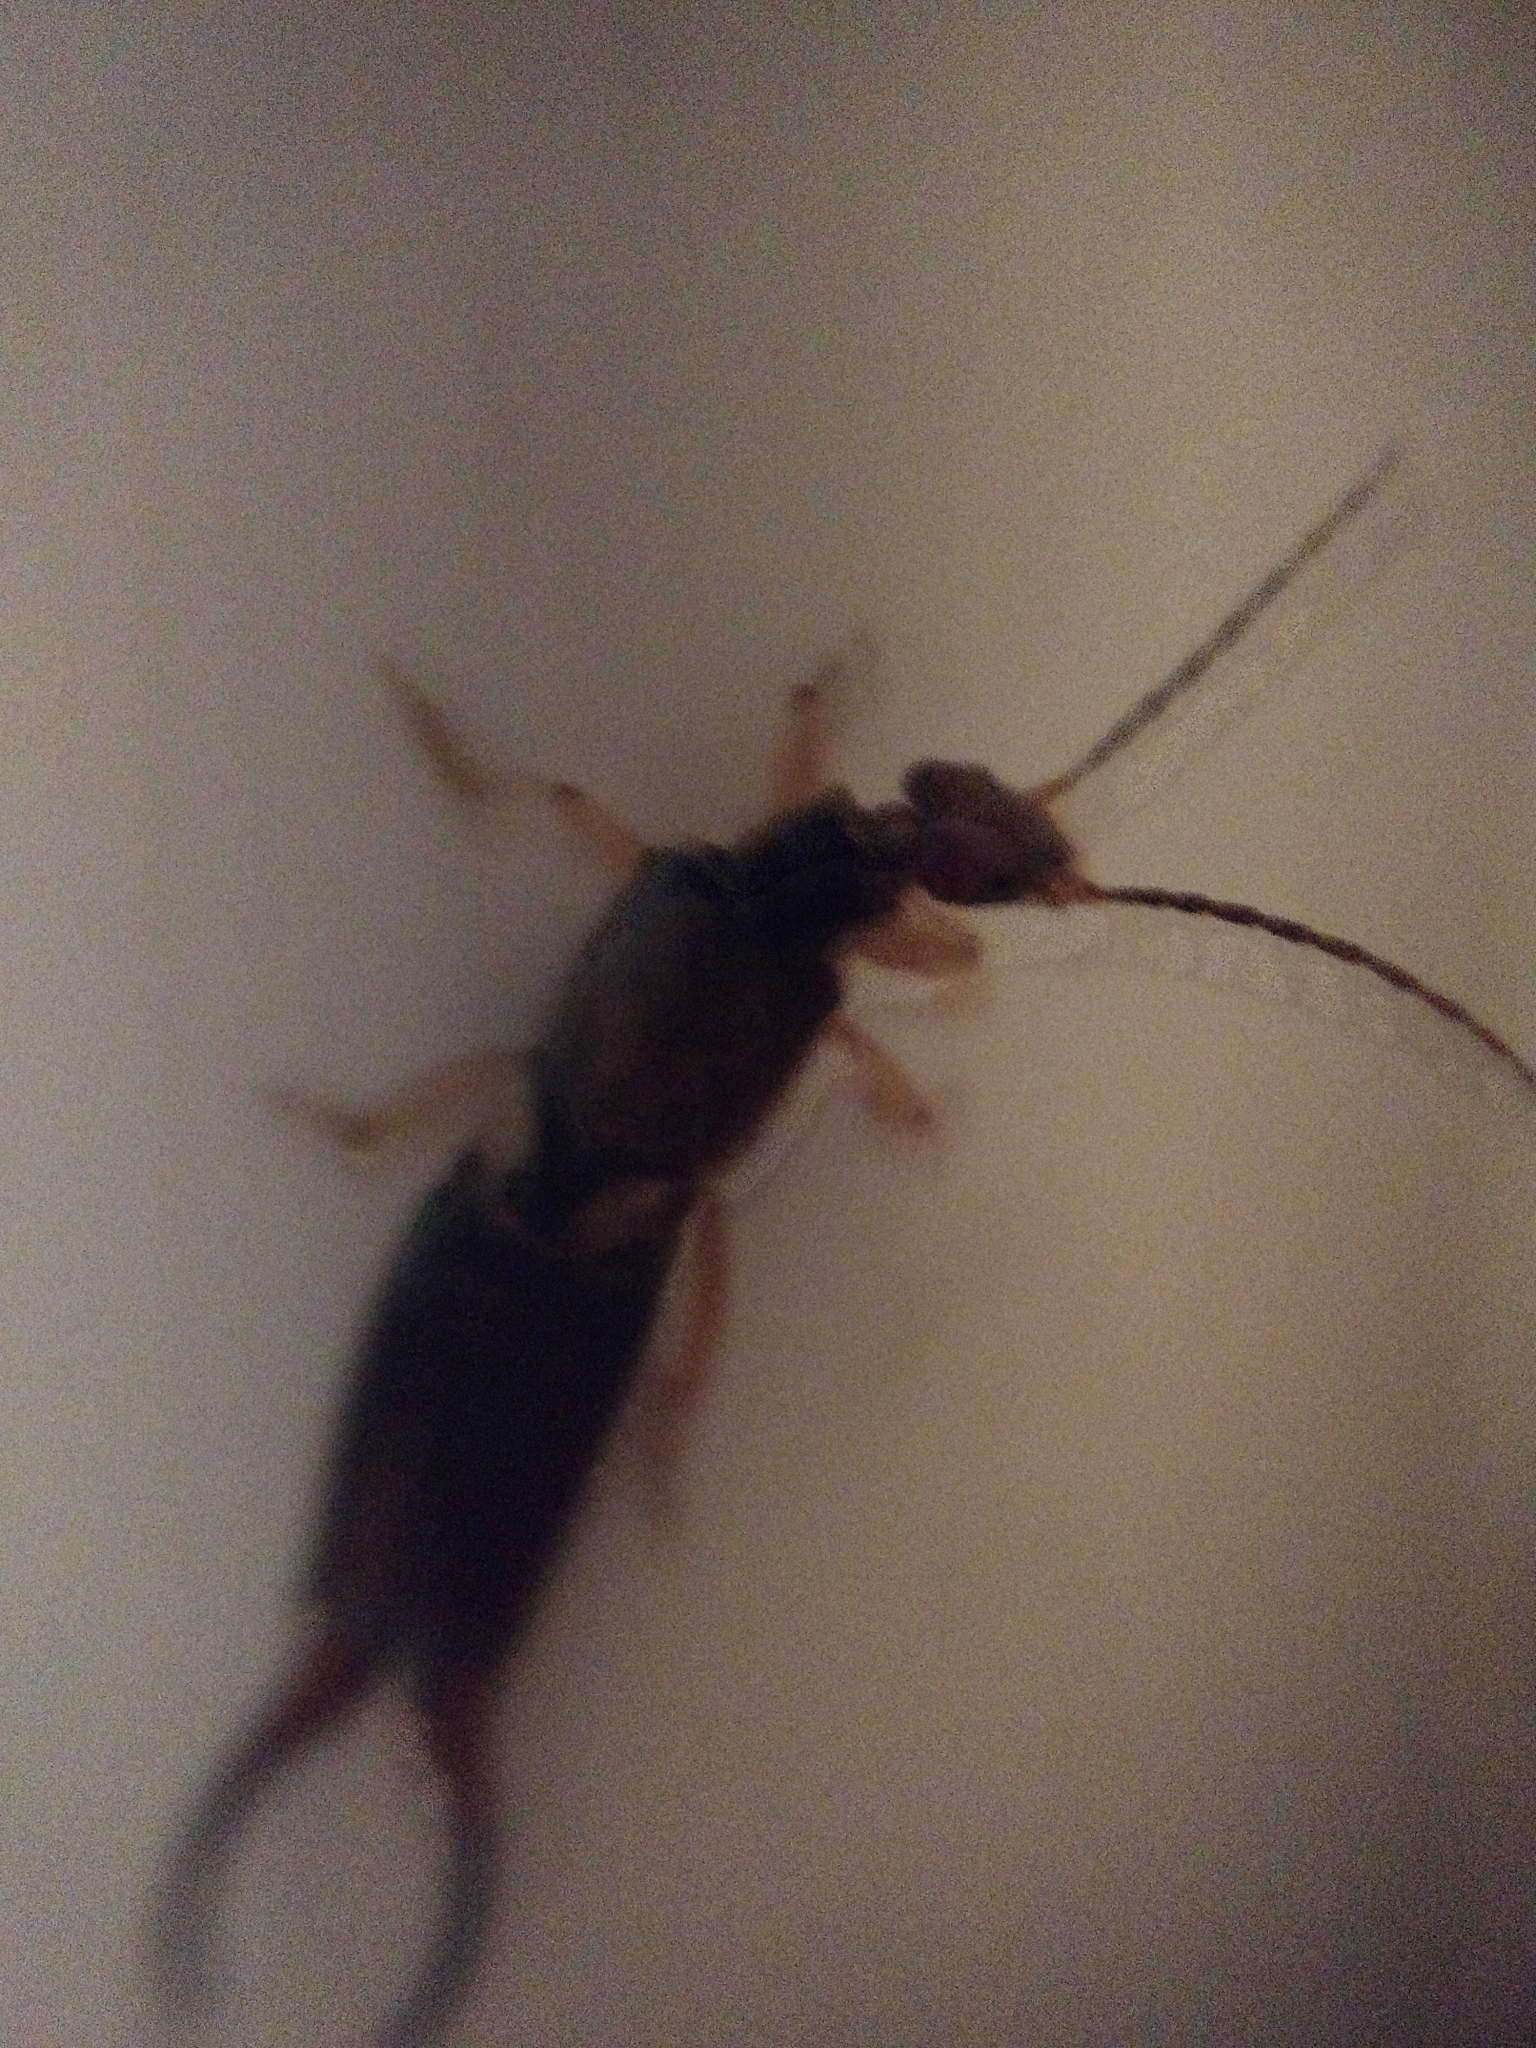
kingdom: Animalia
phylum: Arthropoda
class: Insecta
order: Dermaptera
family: Forficulidae
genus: Forficula
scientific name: Forficula
